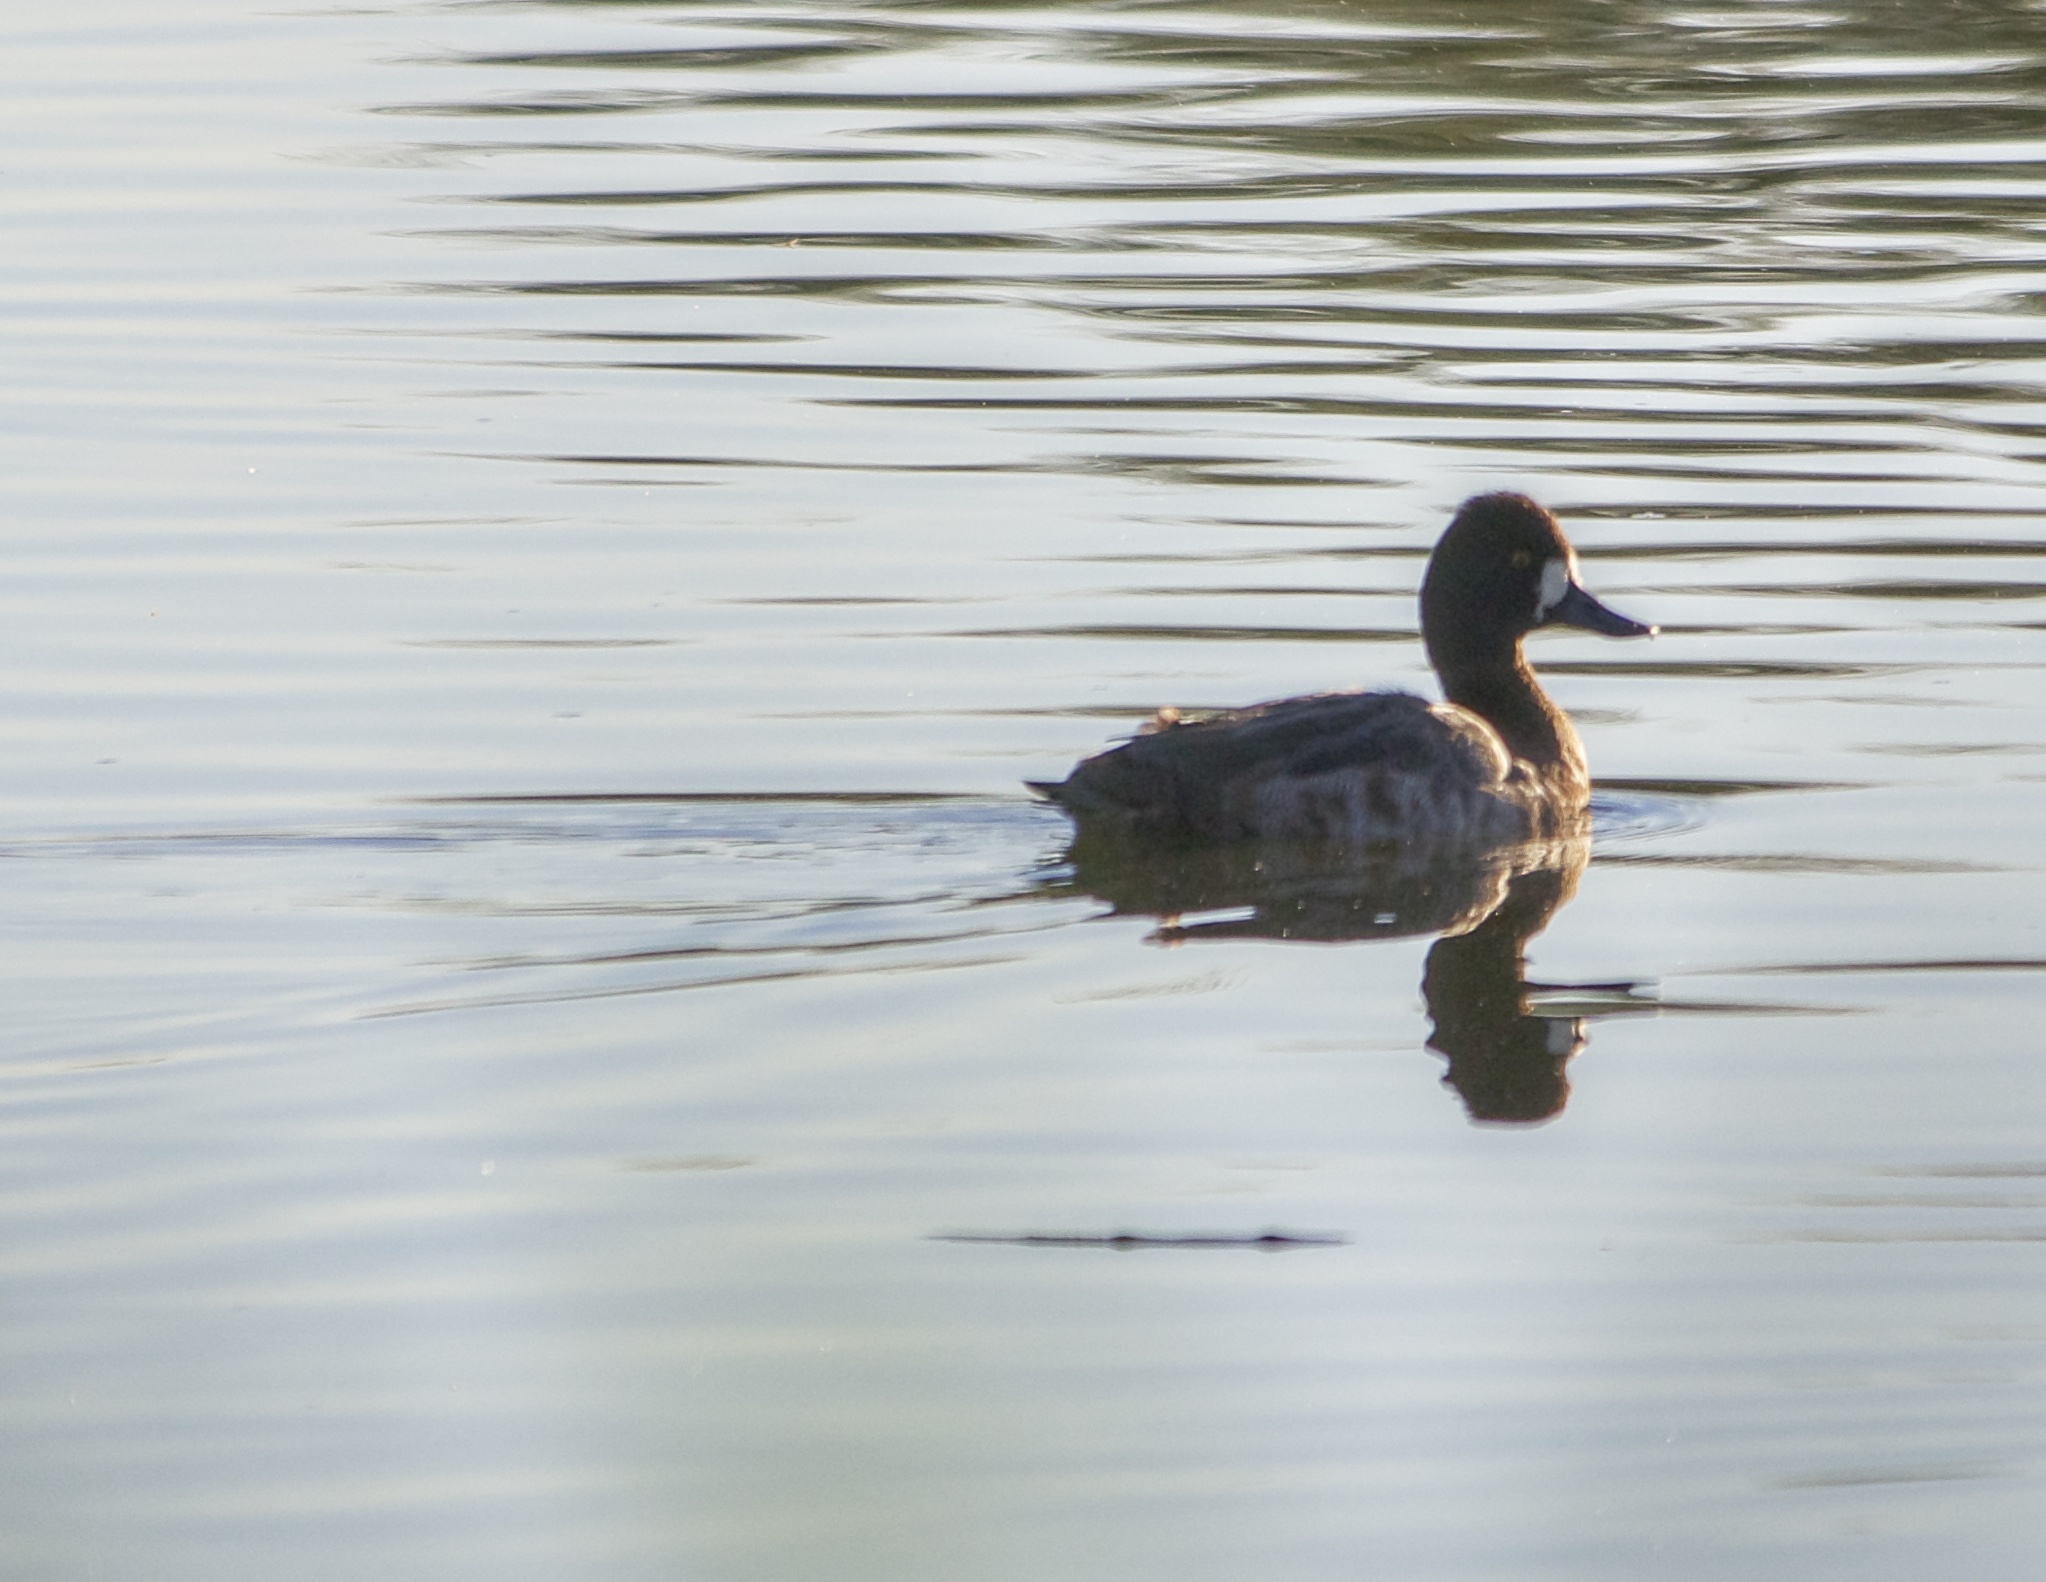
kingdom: Animalia
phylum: Chordata
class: Aves
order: Anseriformes
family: Anatidae
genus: Aythya
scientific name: Aythya affinis
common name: Lesser scaup
